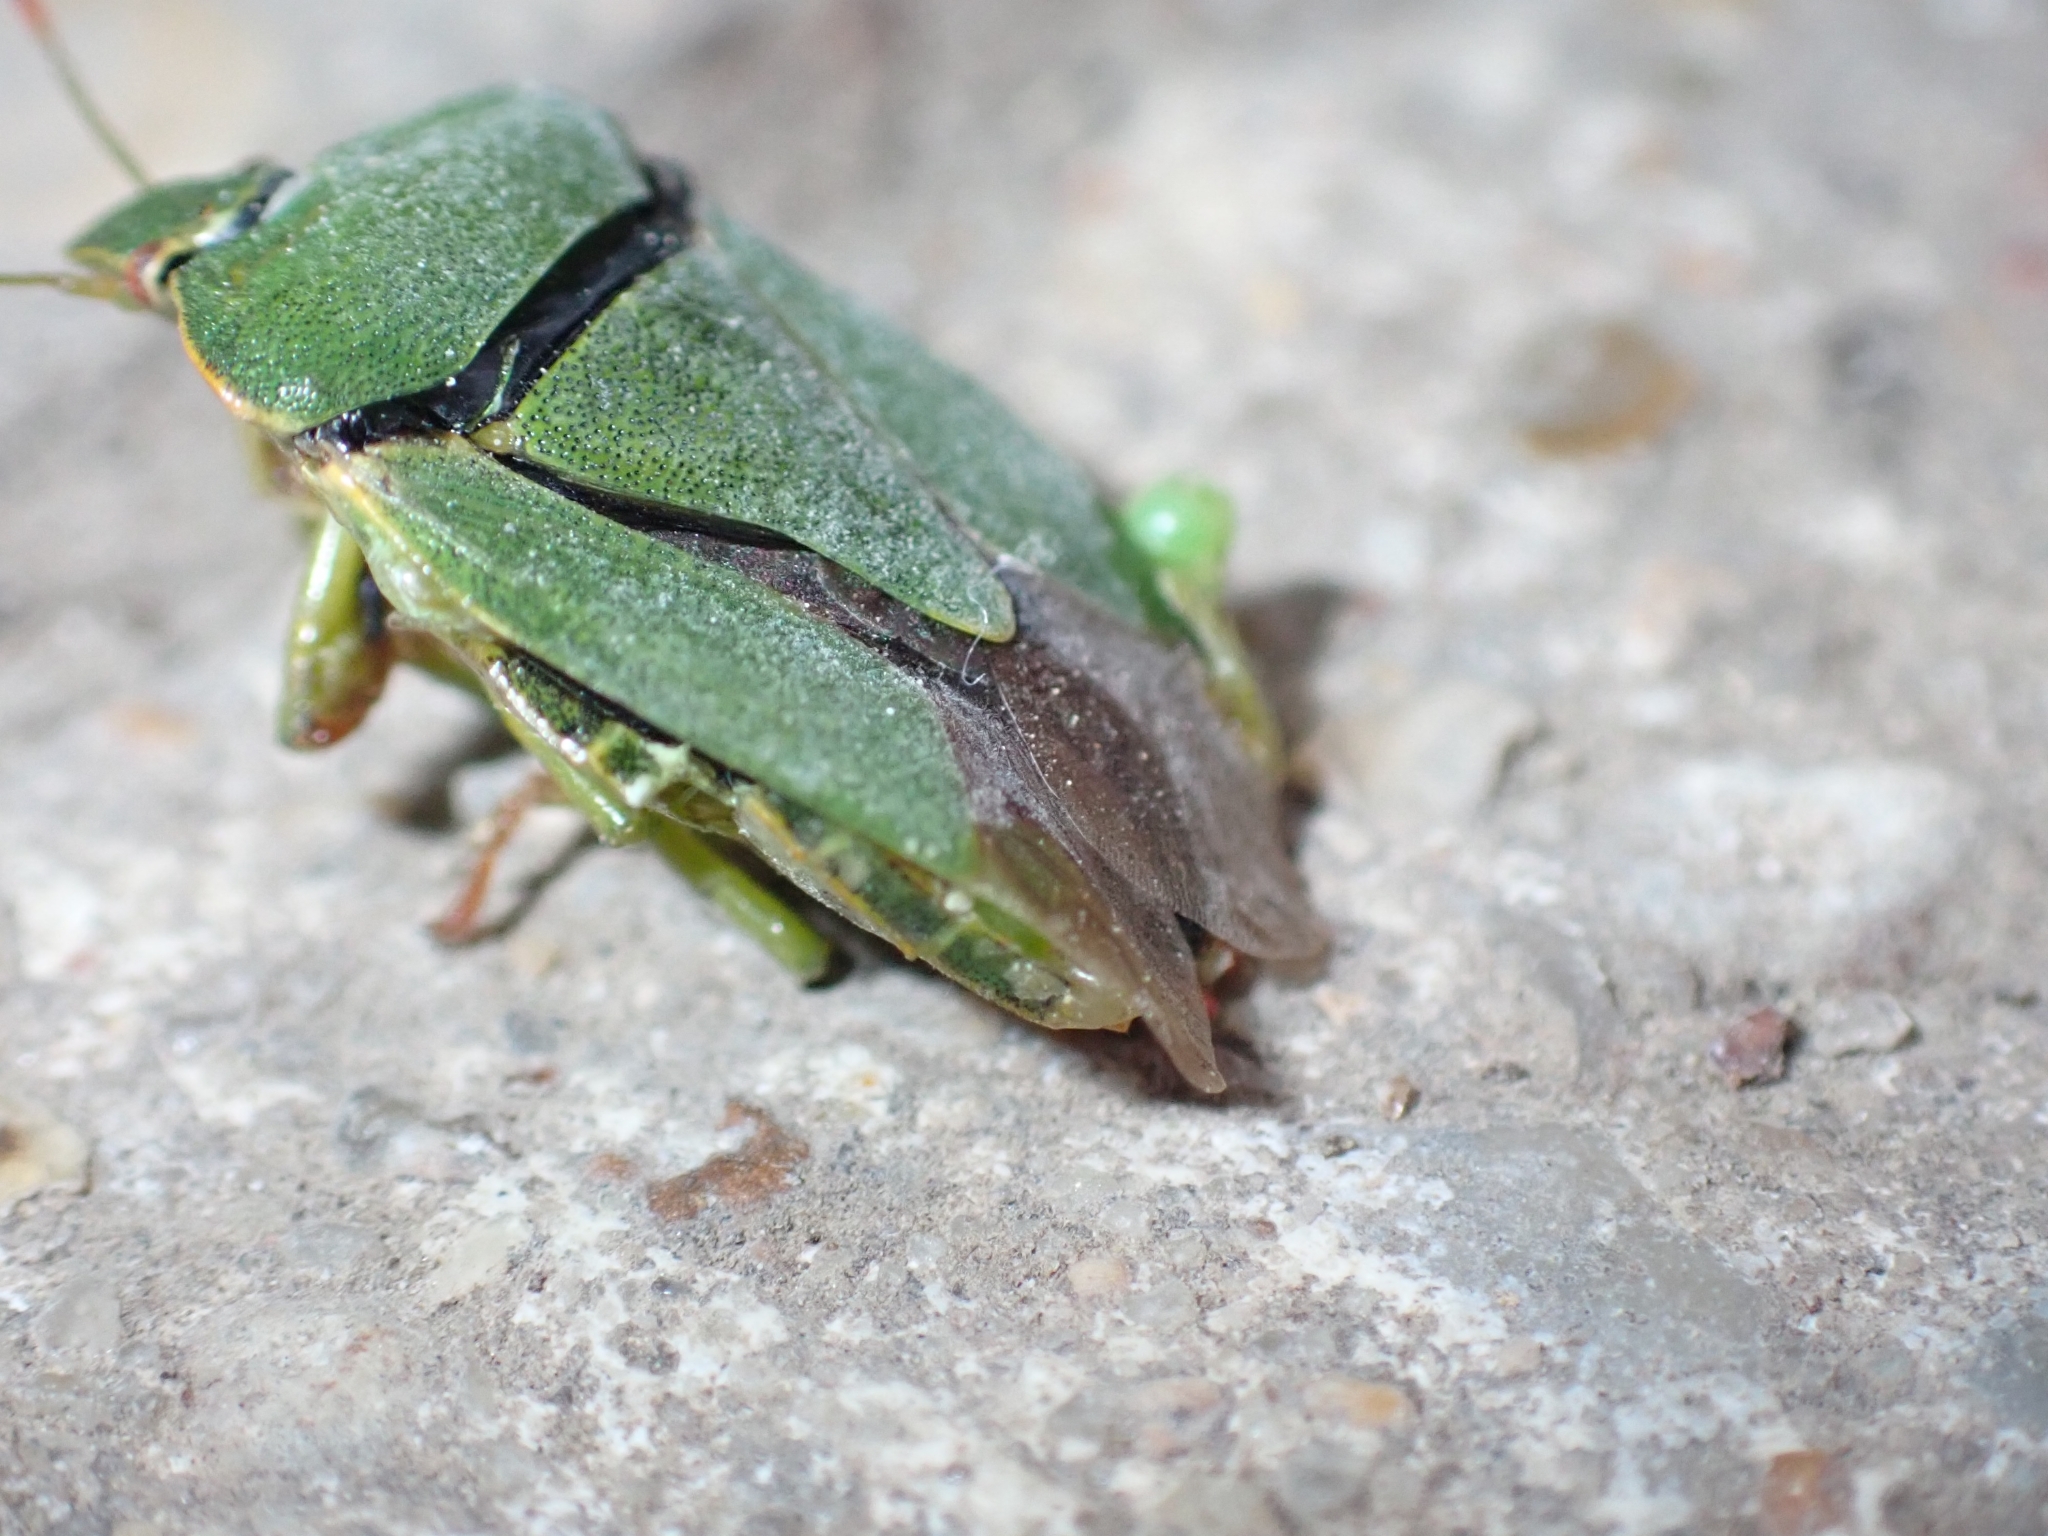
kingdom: Animalia
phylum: Arthropoda
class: Insecta
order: Hemiptera
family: Pentatomidae
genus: Palomena
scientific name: Palomena prasina
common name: Green shieldbug
